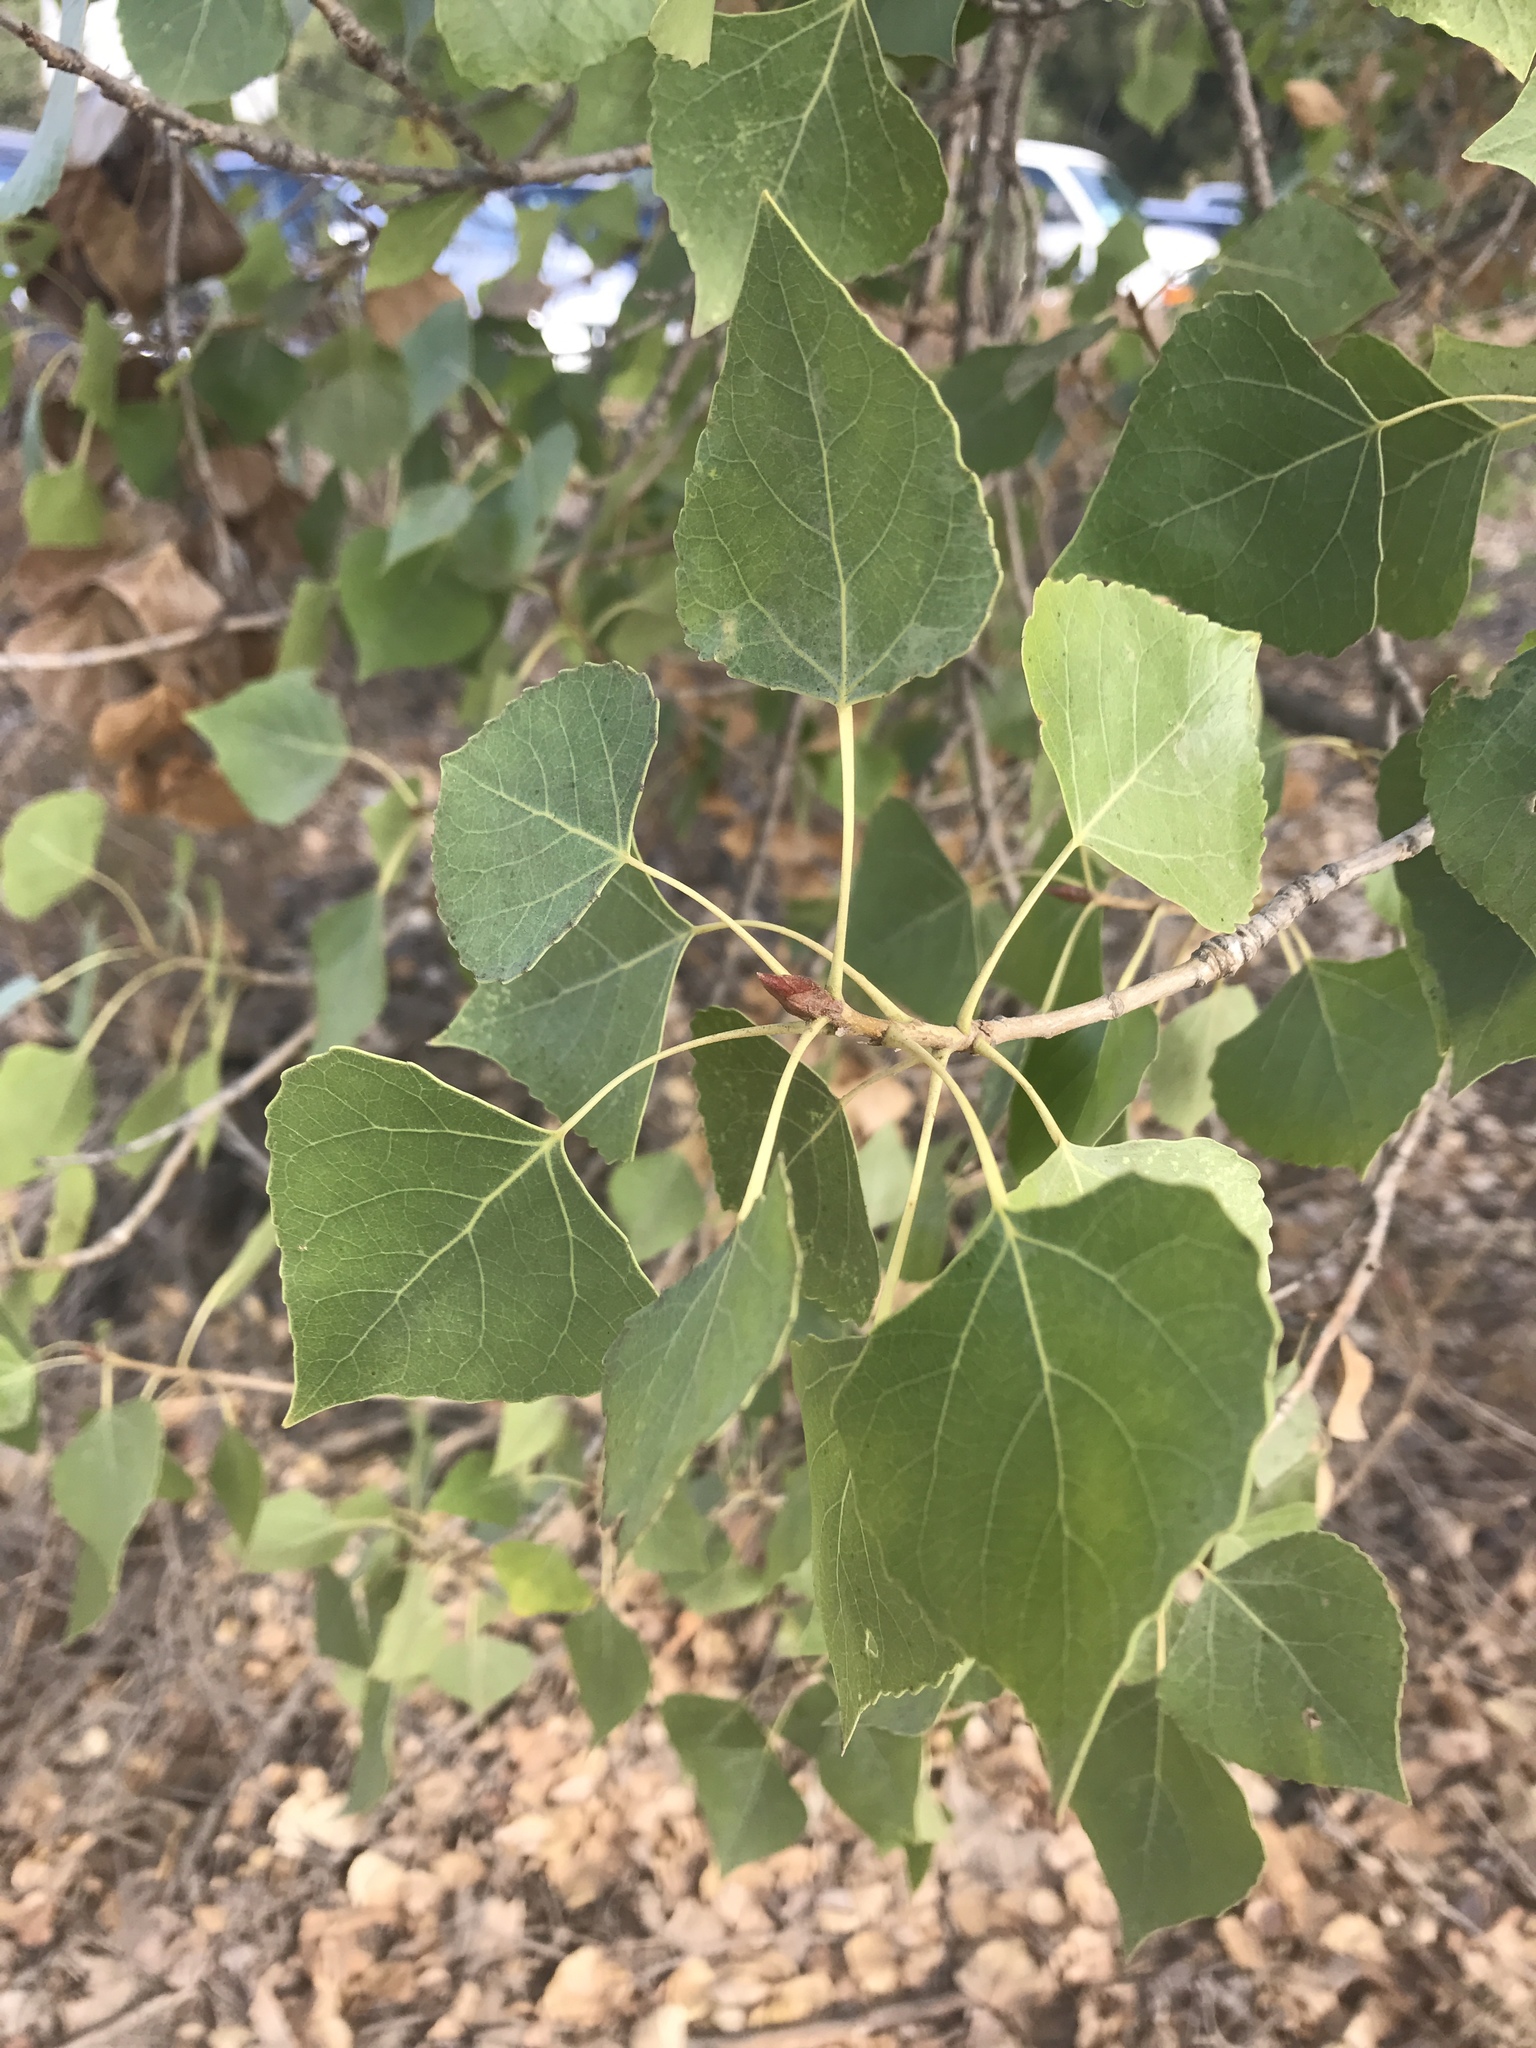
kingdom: Plantae
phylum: Tracheophyta
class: Magnoliopsida
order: Malpighiales
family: Salicaceae
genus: Populus
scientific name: Populus fremontii
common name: Fremont's cottonwood
